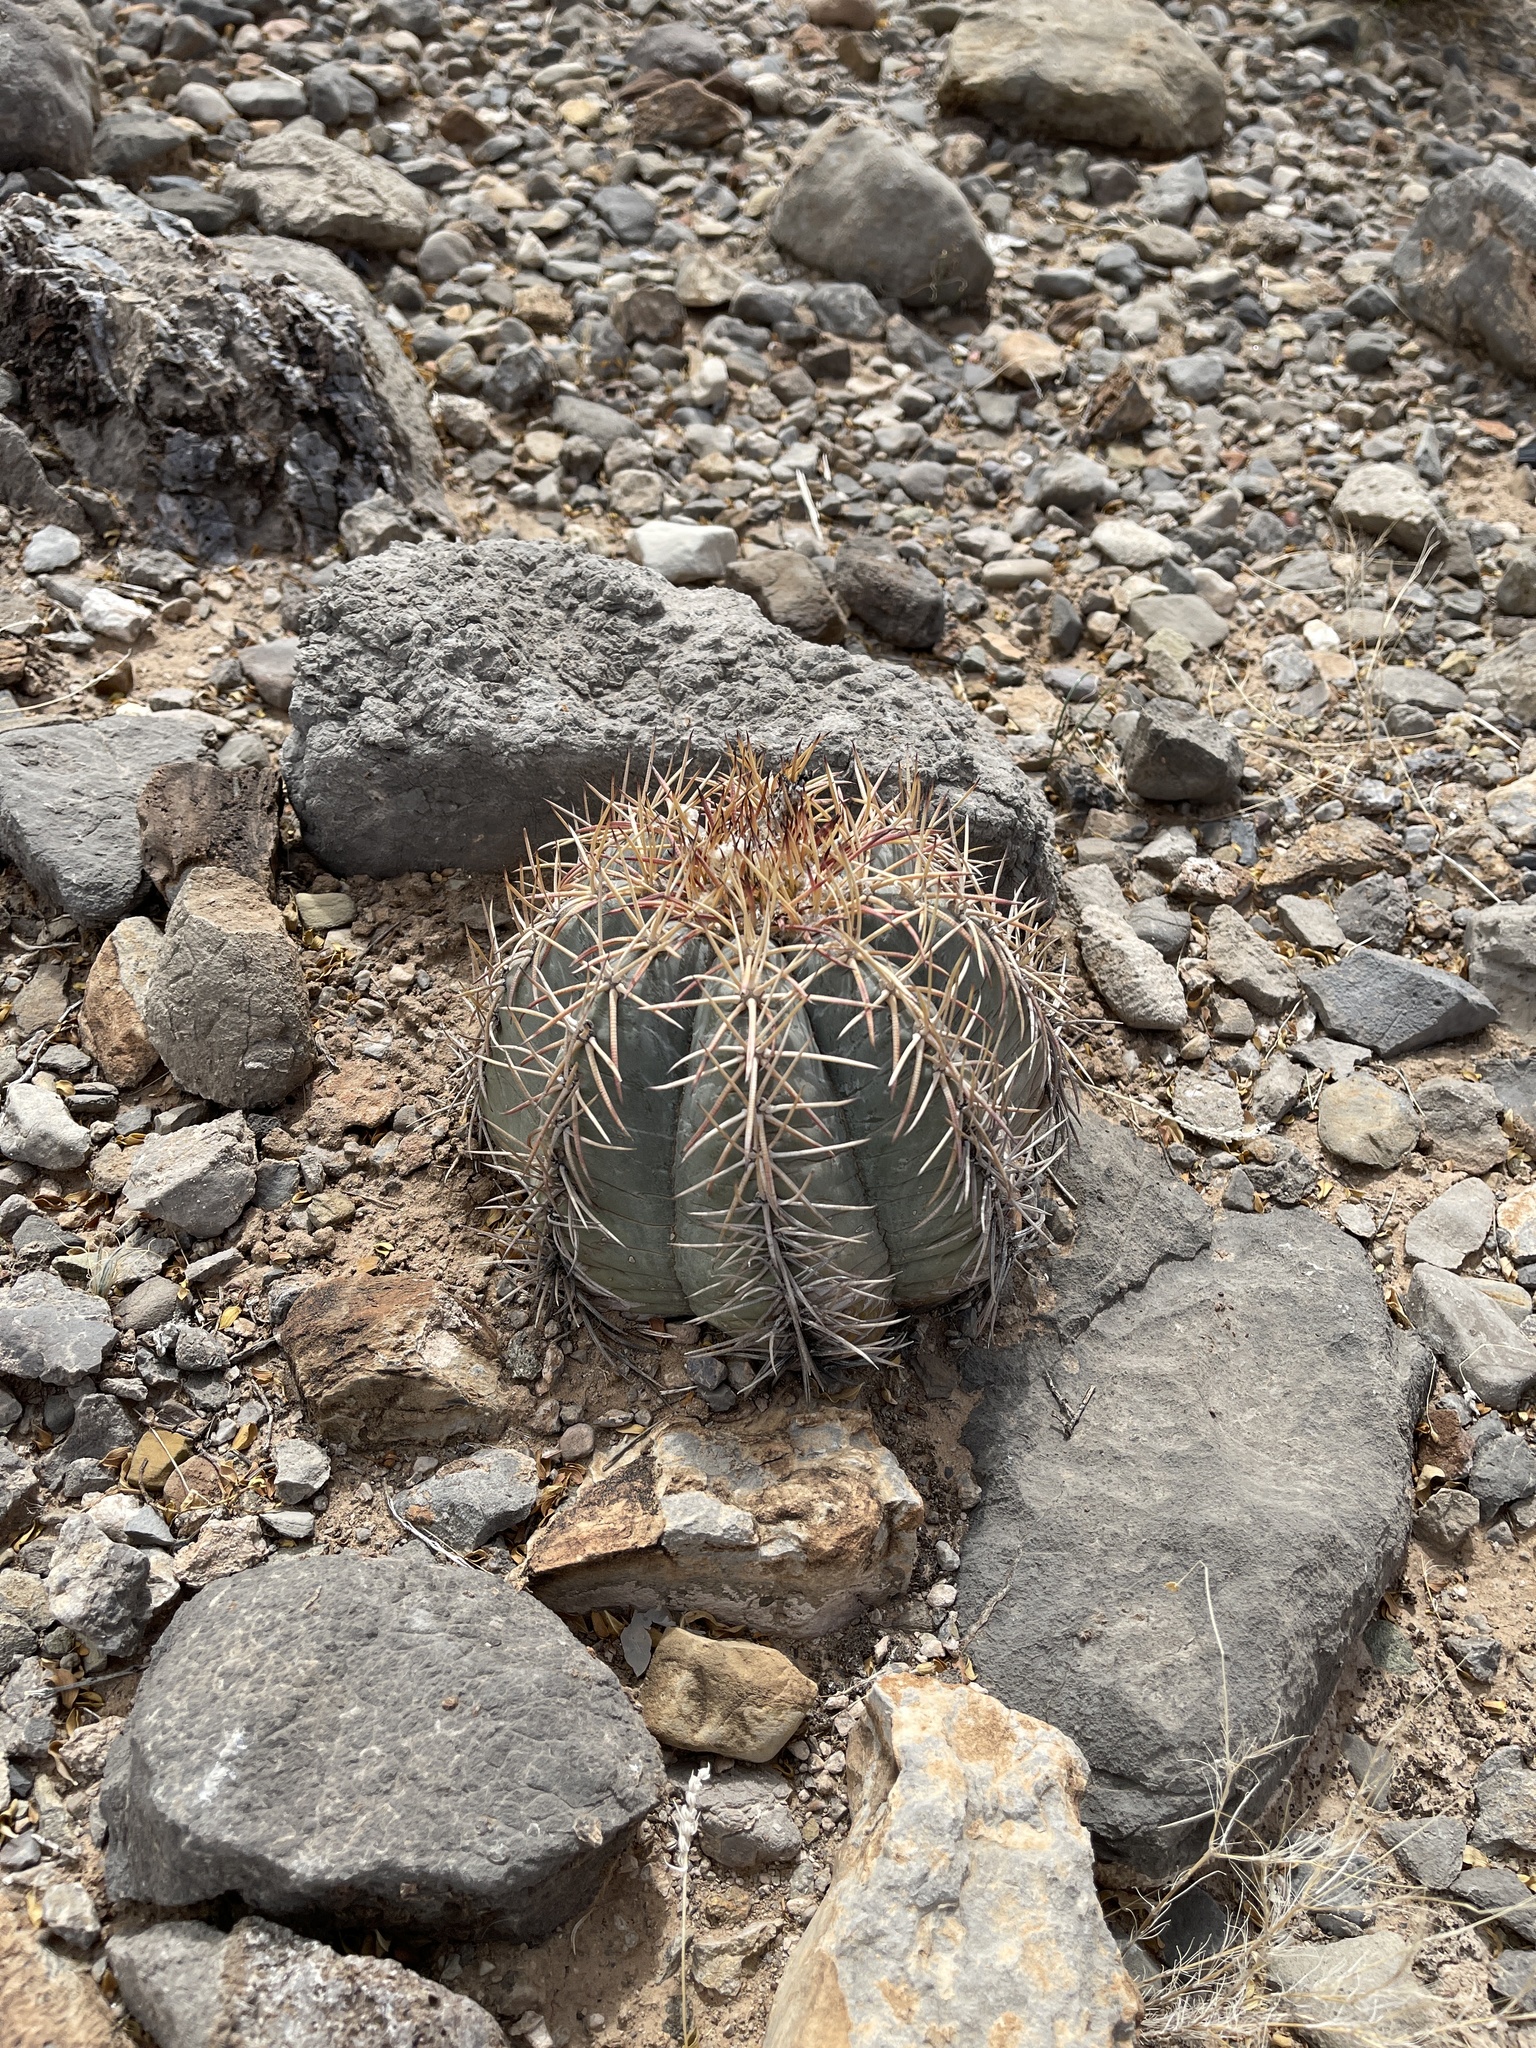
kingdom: Plantae
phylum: Tracheophyta
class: Magnoliopsida
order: Caryophyllales
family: Cactaceae
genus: Echinocactus
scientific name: Echinocactus horizonthalonius
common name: Devilshead
